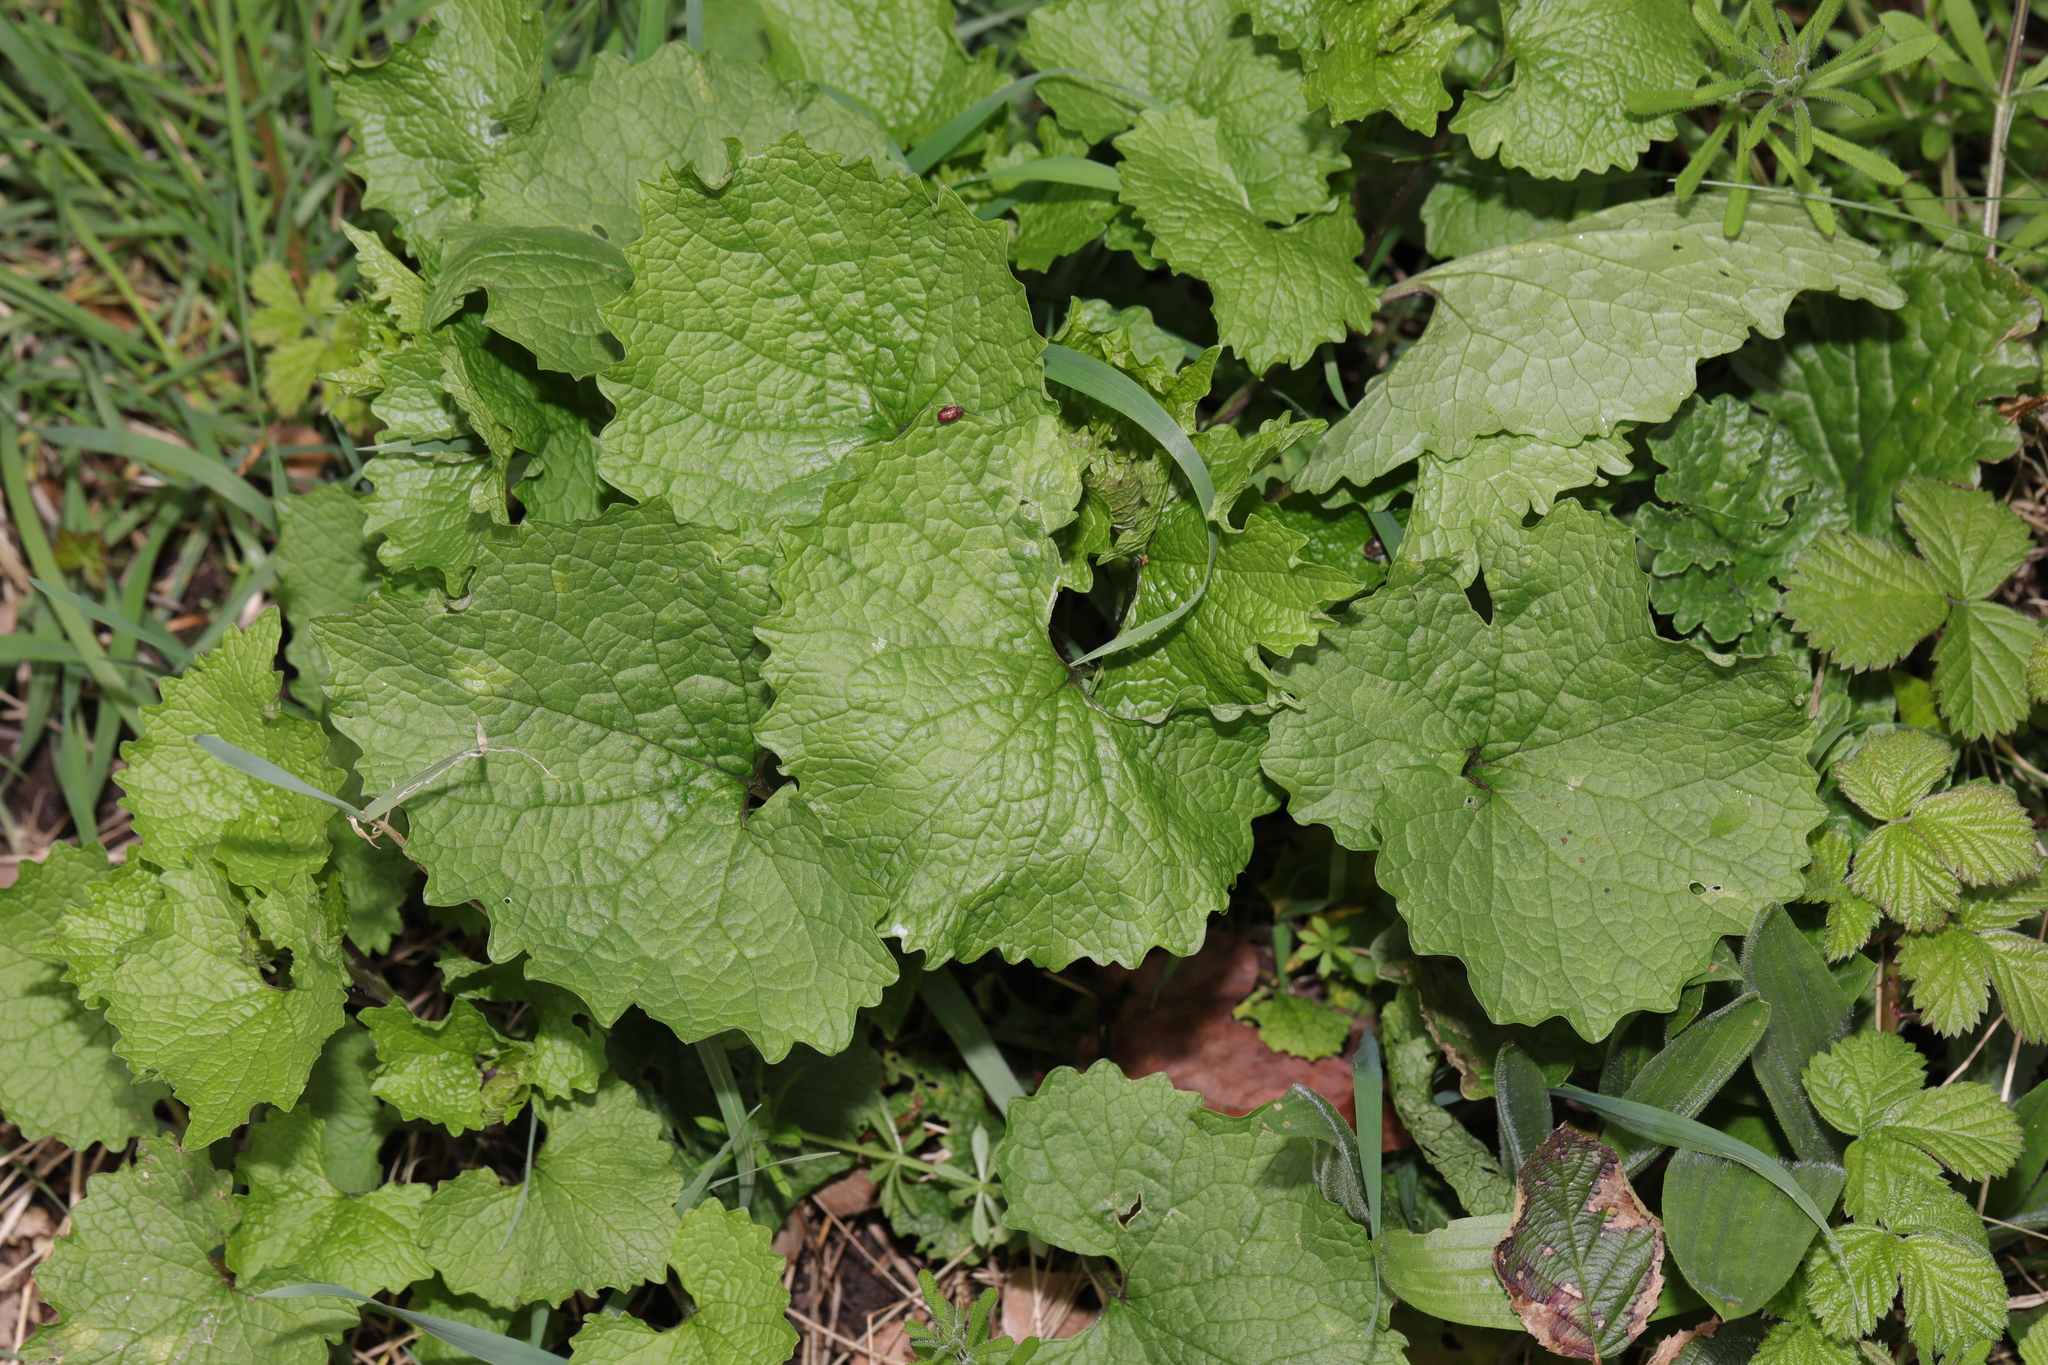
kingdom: Plantae
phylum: Tracheophyta
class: Magnoliopsida
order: Brassicales
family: Brassicaceae
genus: Alliaria
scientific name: Alliaria petiolata
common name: Garlic mustard
